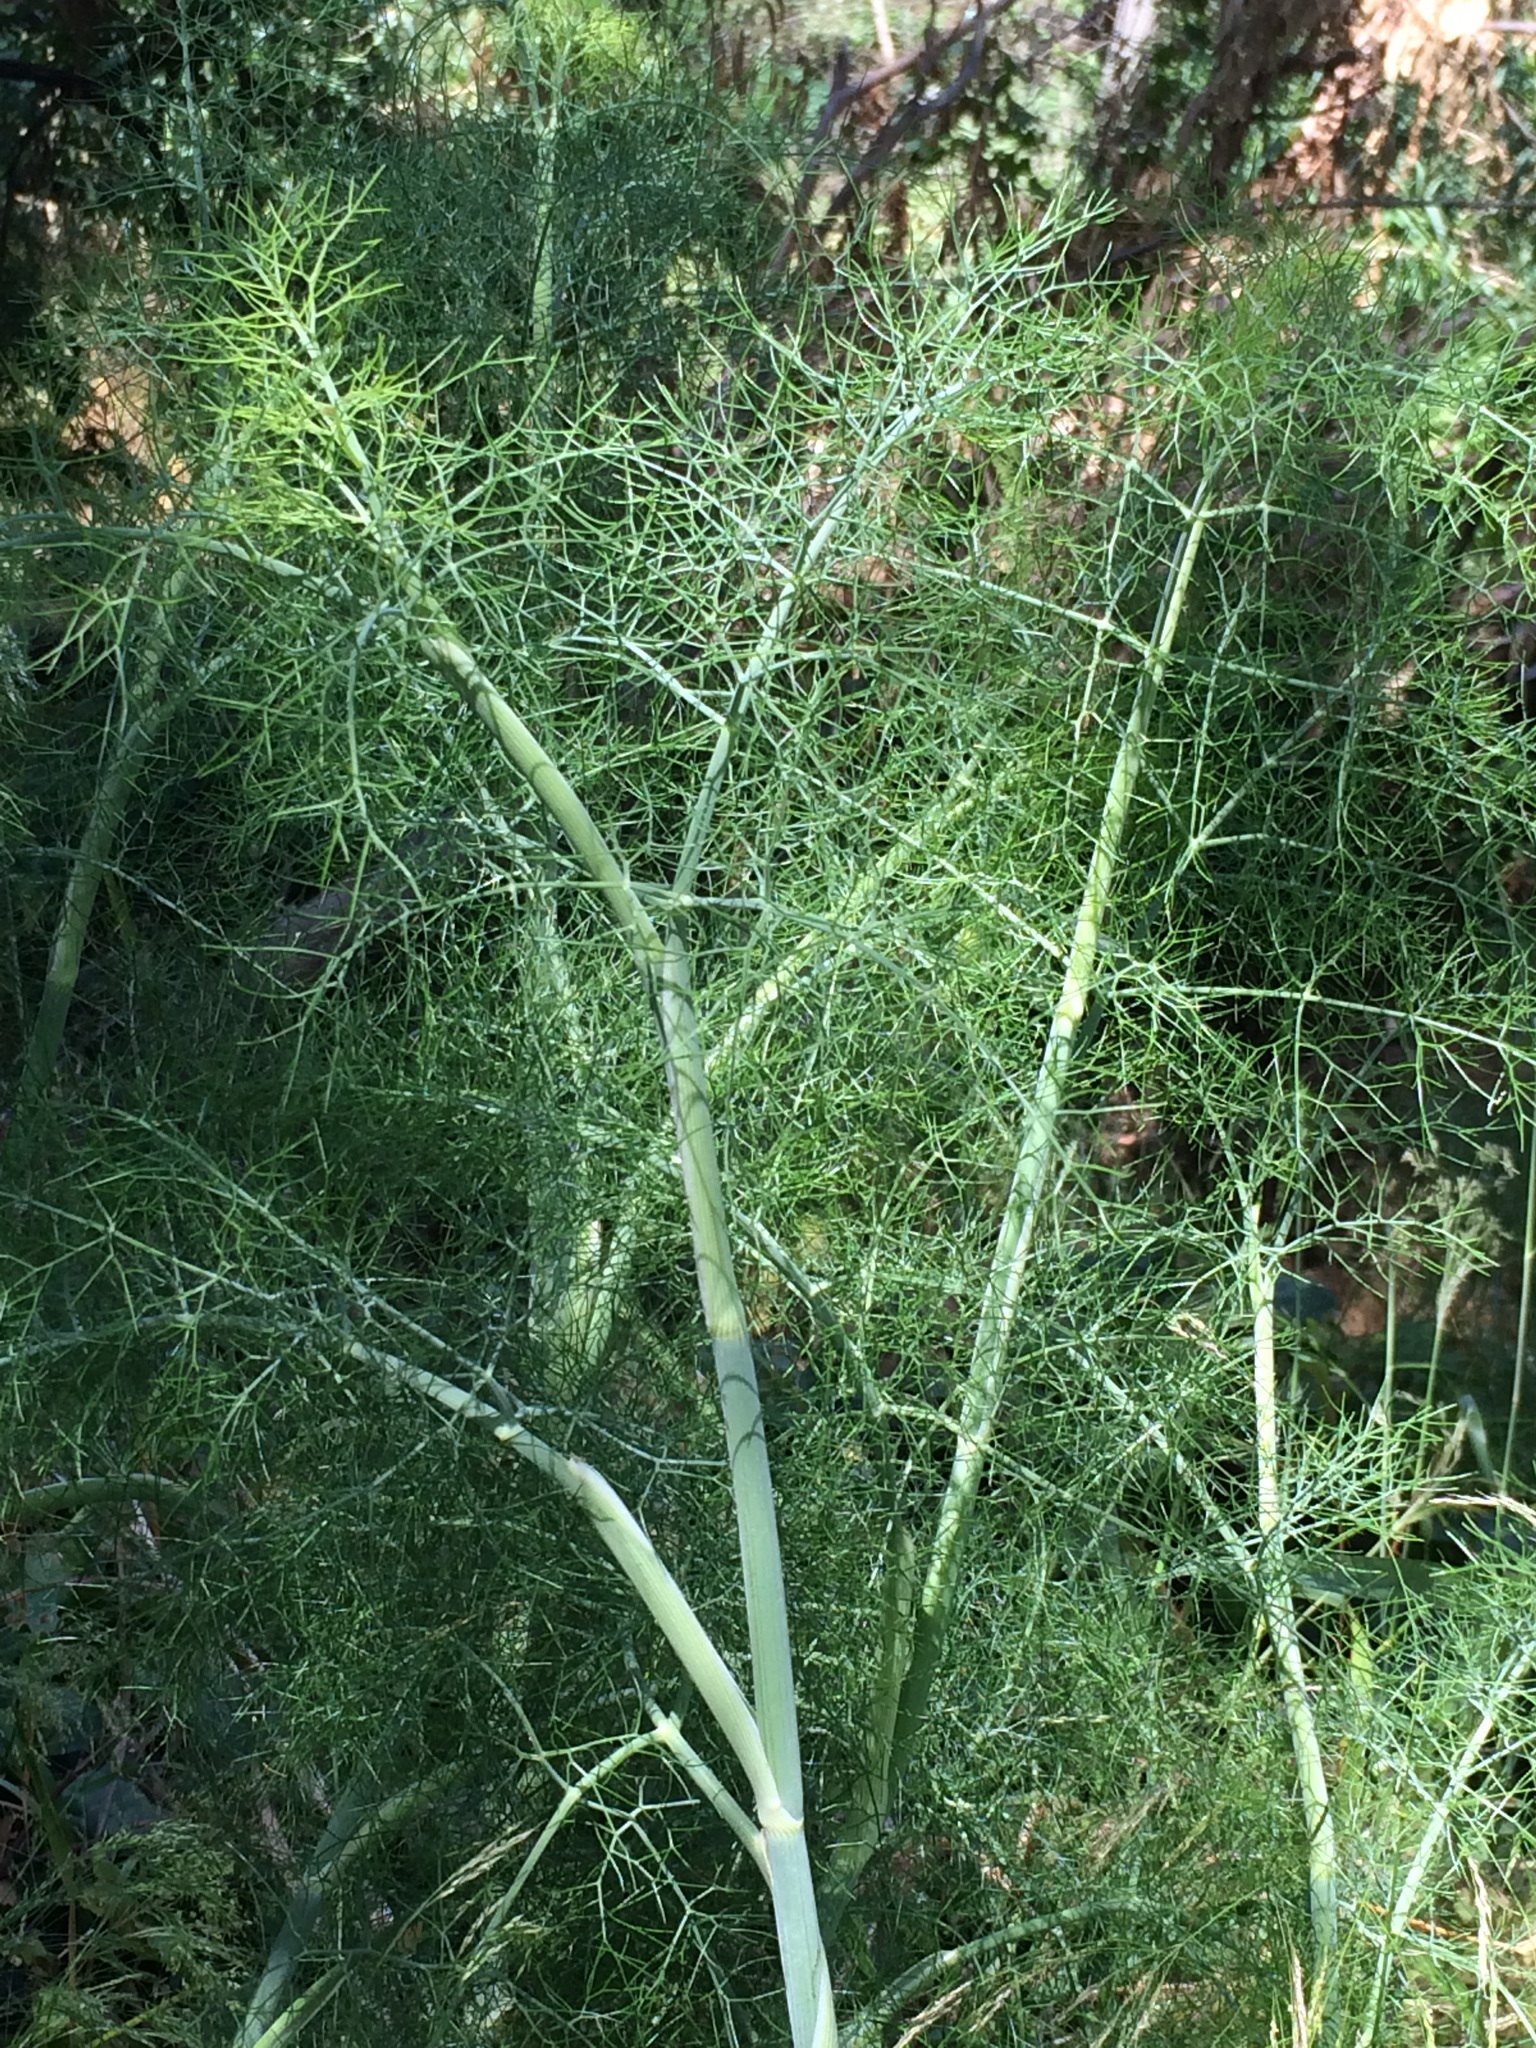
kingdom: Plantae
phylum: Tracheophyta
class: Magnoliopsida
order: Apiales
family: Apiaceae
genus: Foeniculum
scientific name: Foeniculum vulgare
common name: Fennel
